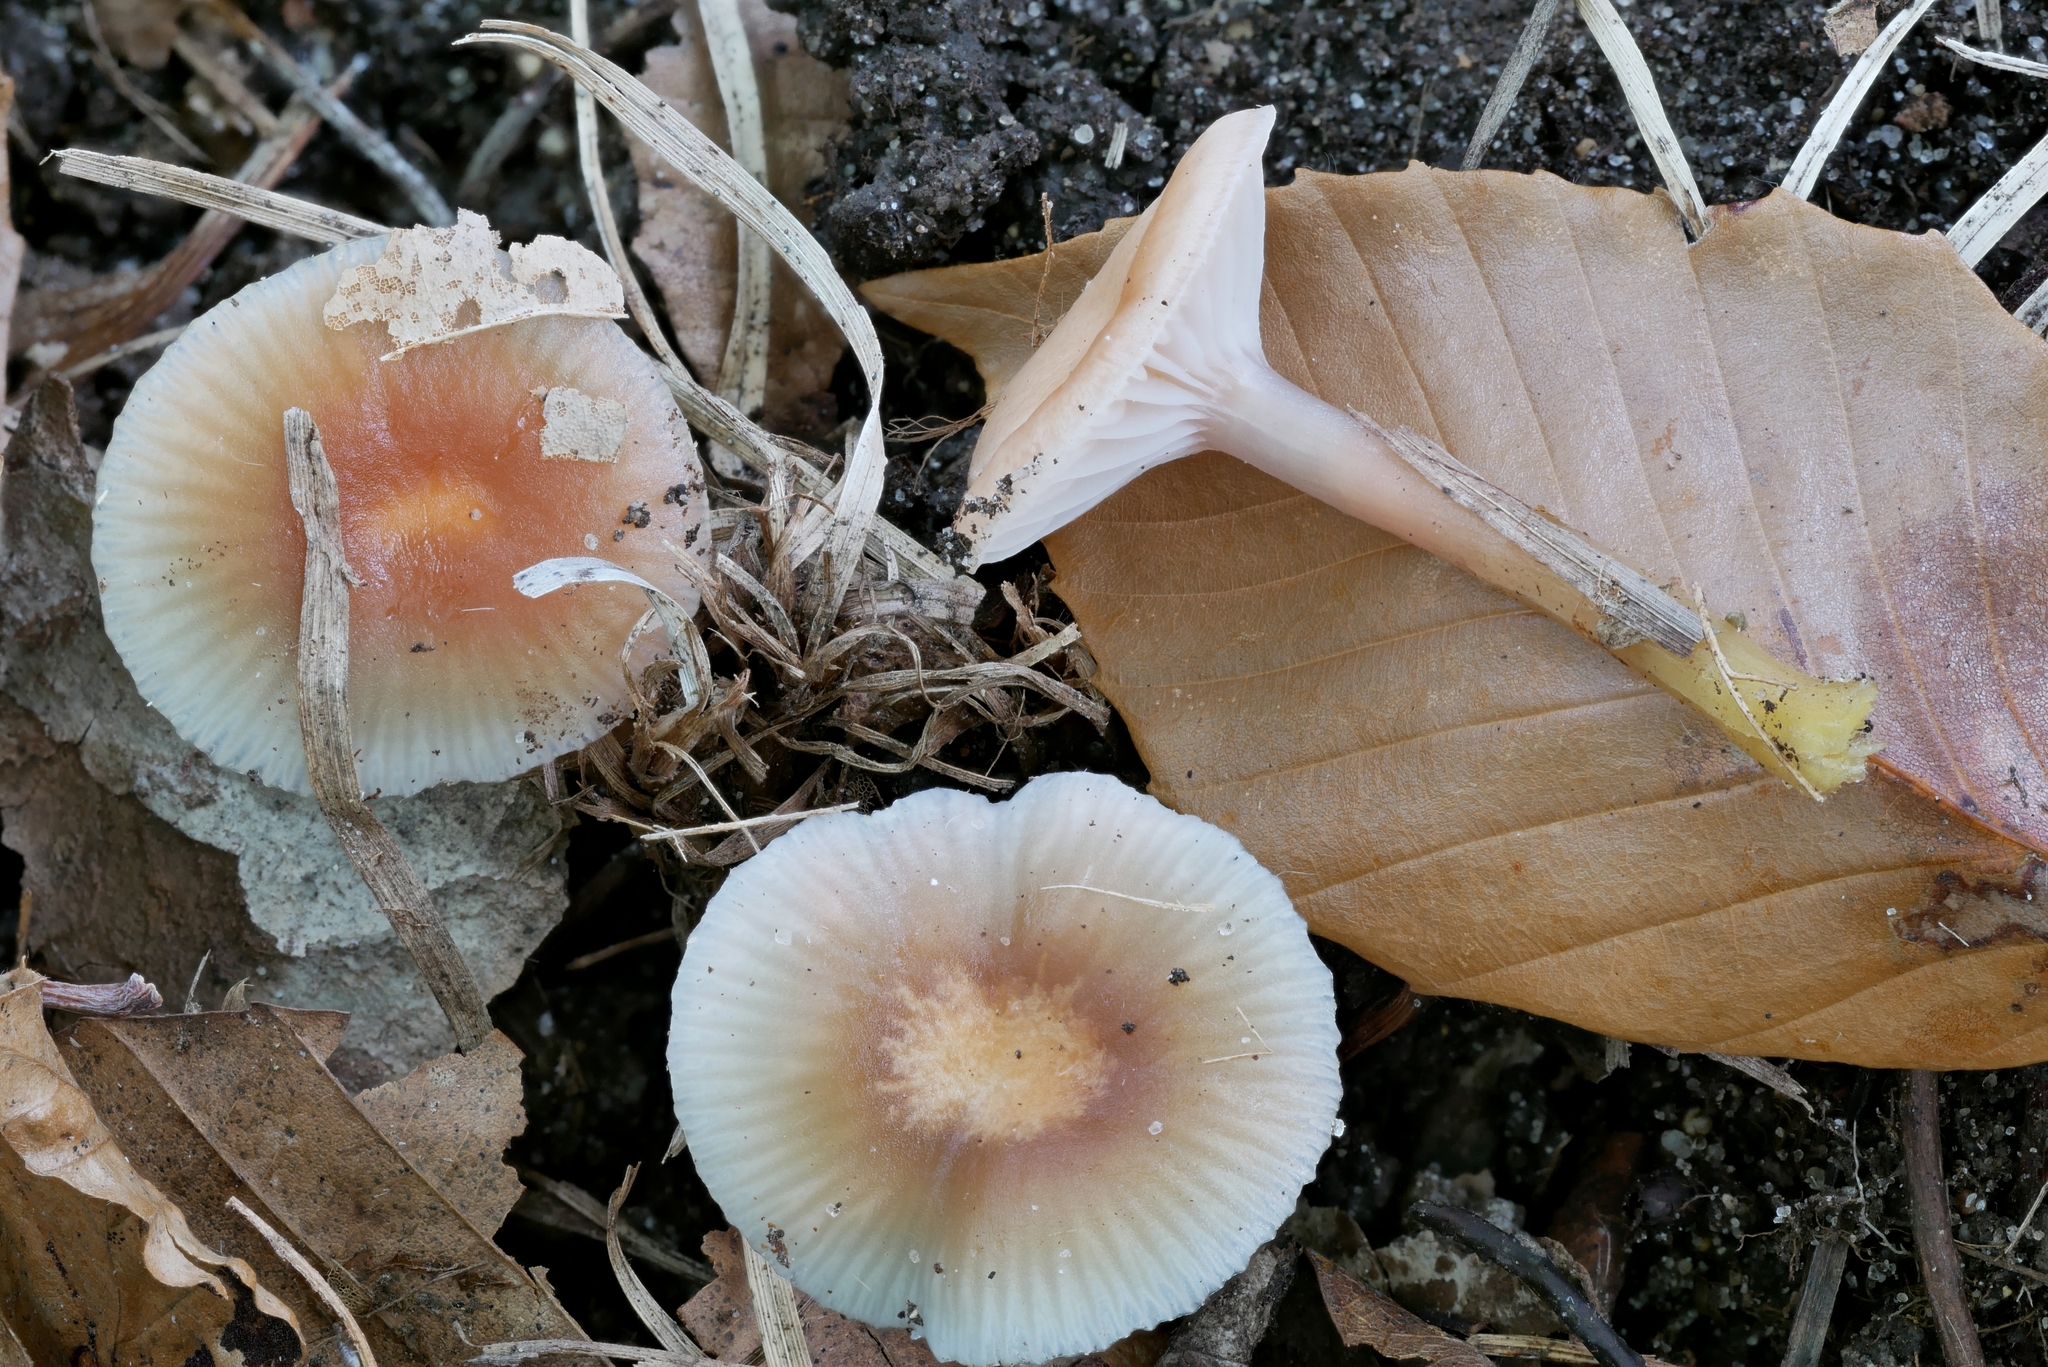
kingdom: Fungi
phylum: Basidiomycota
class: Agaricomycetes
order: Agaricales
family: Hygrophoraceae
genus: Gliophorus
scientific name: Gliophorus laetus
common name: Heath waxcap
